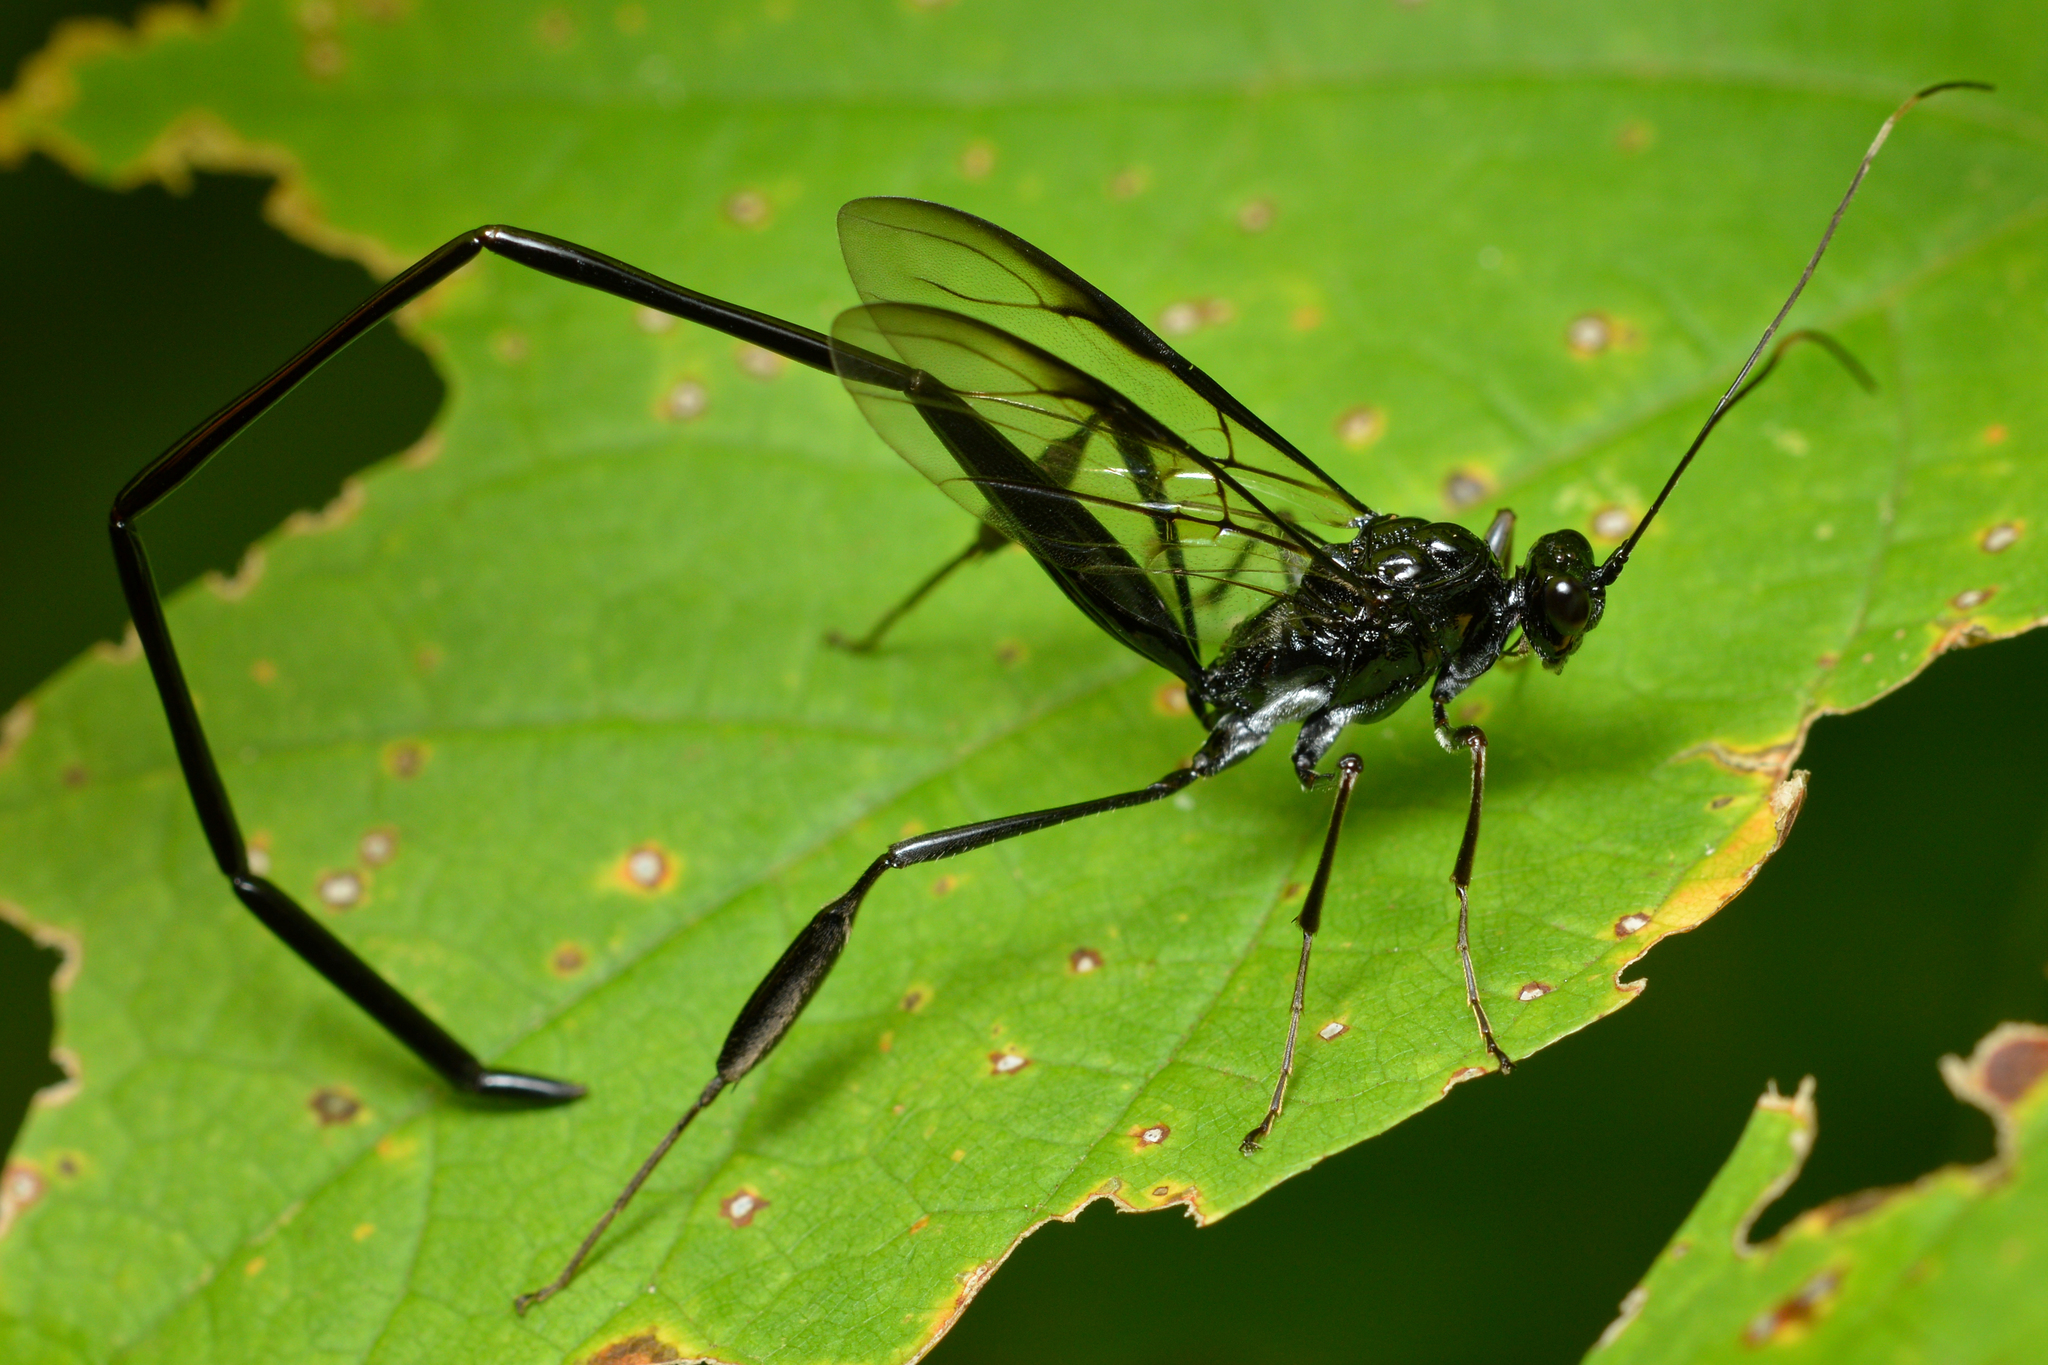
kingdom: Animalia
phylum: Arthropoda
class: Insecta
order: Hymenoptera
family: Pelecinidae
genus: Pelecinus
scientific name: Pelecinus polyturator
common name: American pelecinid wasp
